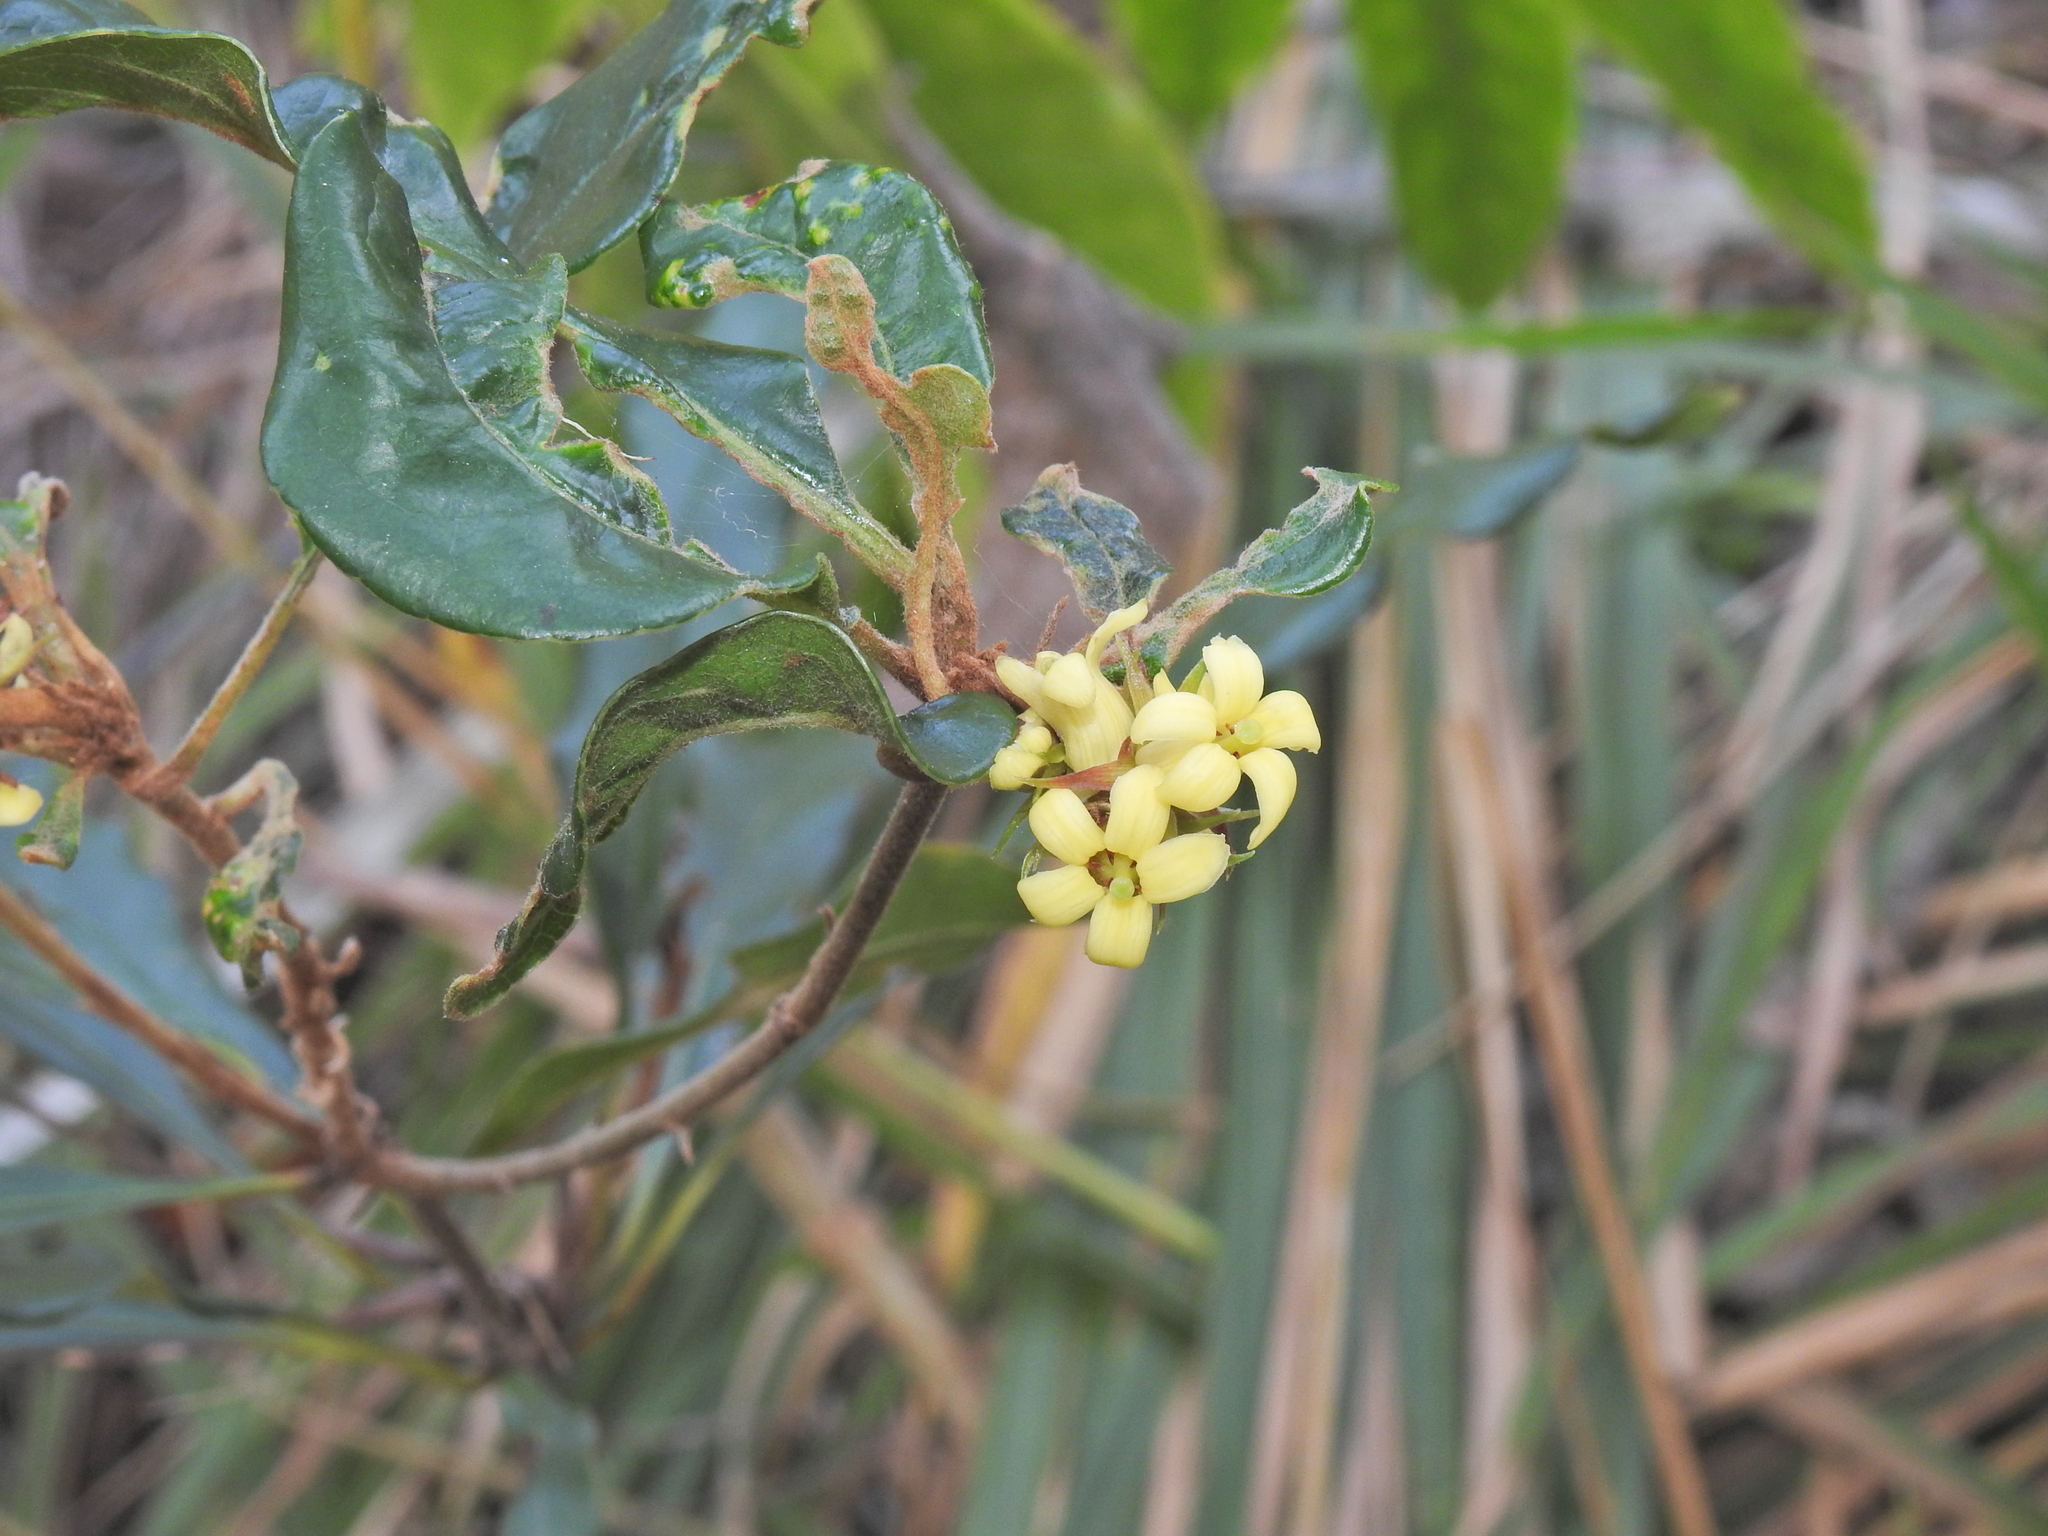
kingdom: Plantae
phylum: Tracheophyta
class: Magnoliopsida
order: Apiales
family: Pittosporaceae
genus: Pittosporum
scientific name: Pittosporum revolutum
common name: Brisbane-laurel
